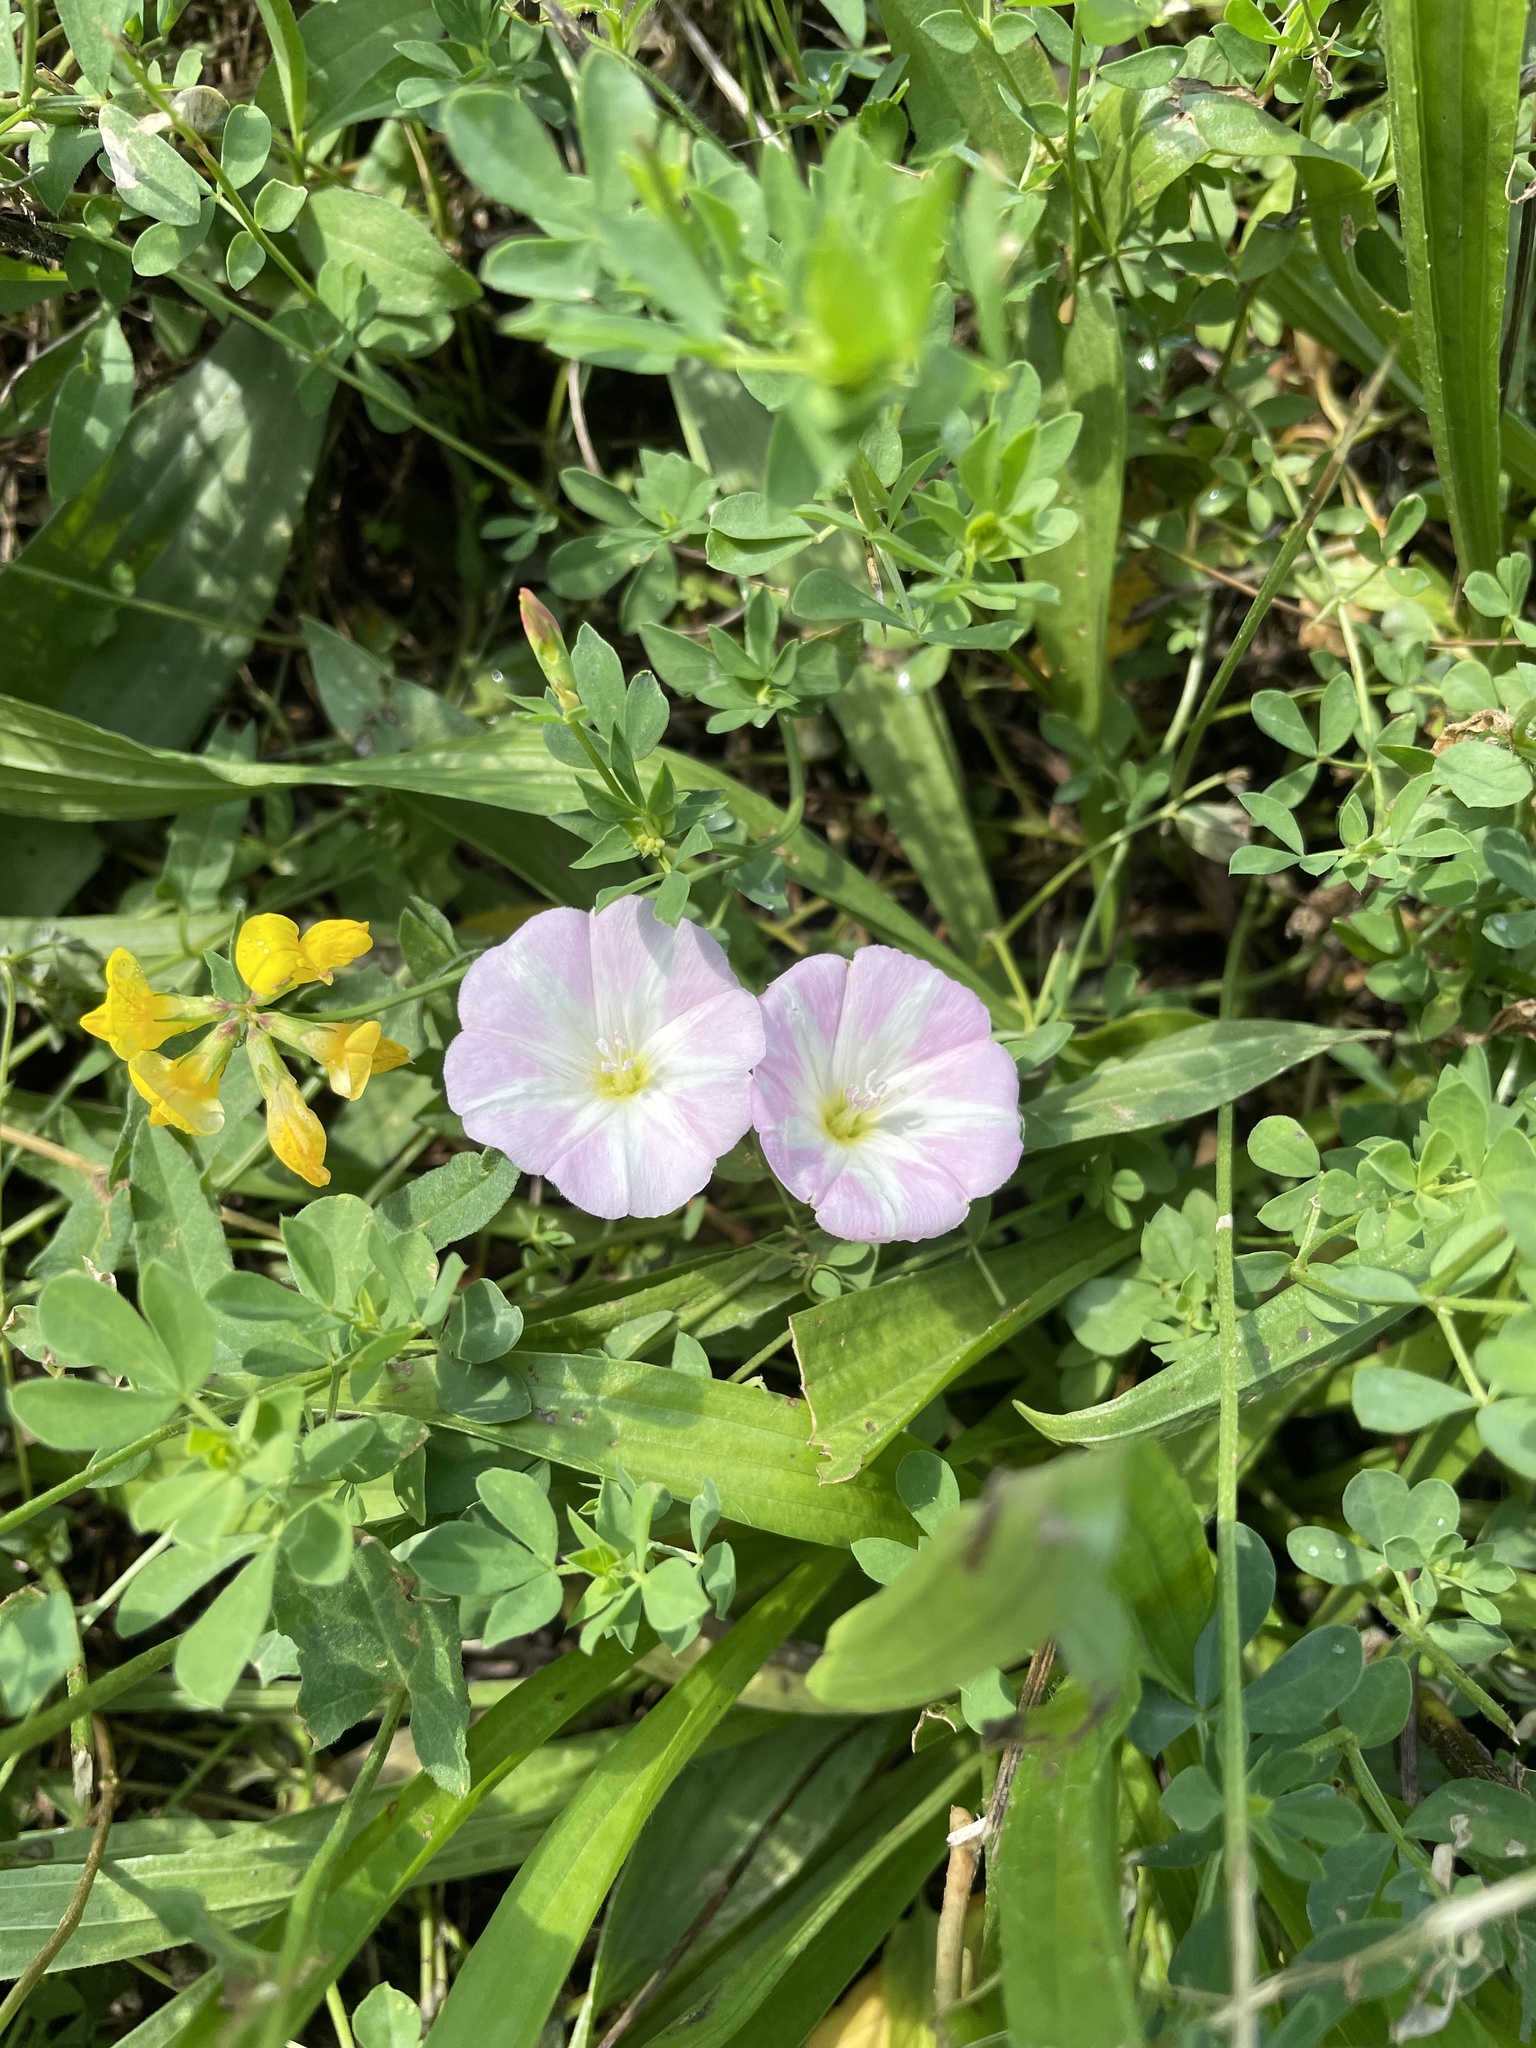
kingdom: Plantae
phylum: Tracheophyta
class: Magnoliopsida
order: Solanales
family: Convolvulaceae
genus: Convolvulus
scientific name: Convolvulus arvensis
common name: Field bindweed
